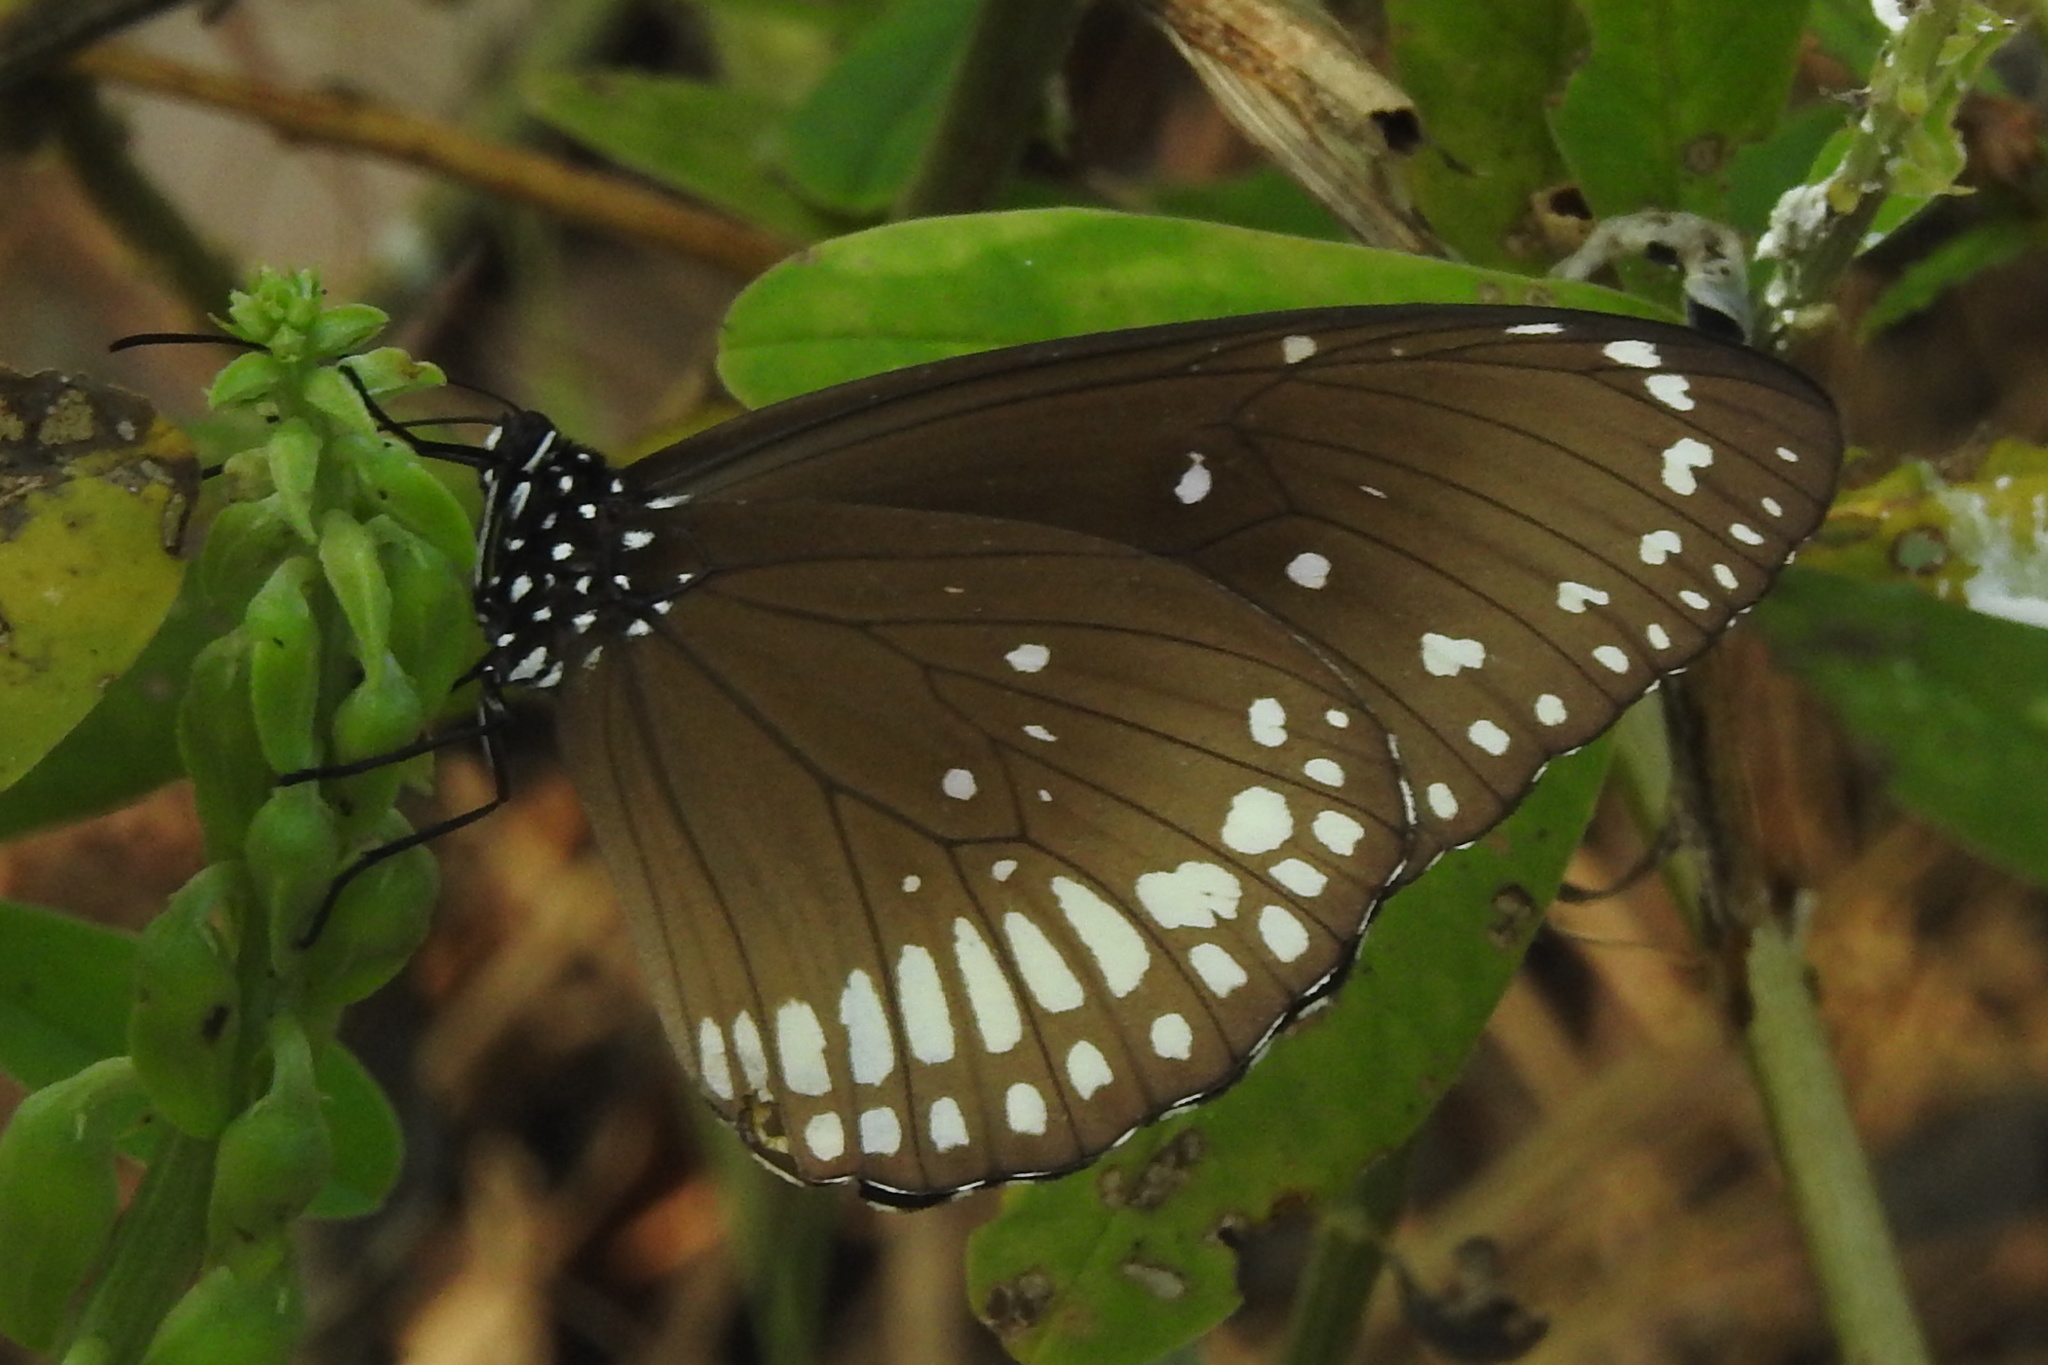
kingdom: Animalia
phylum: Arthropoda
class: Insecta
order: Lepidoptera
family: Nymphalidae
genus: Euploea
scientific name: Euploea core
